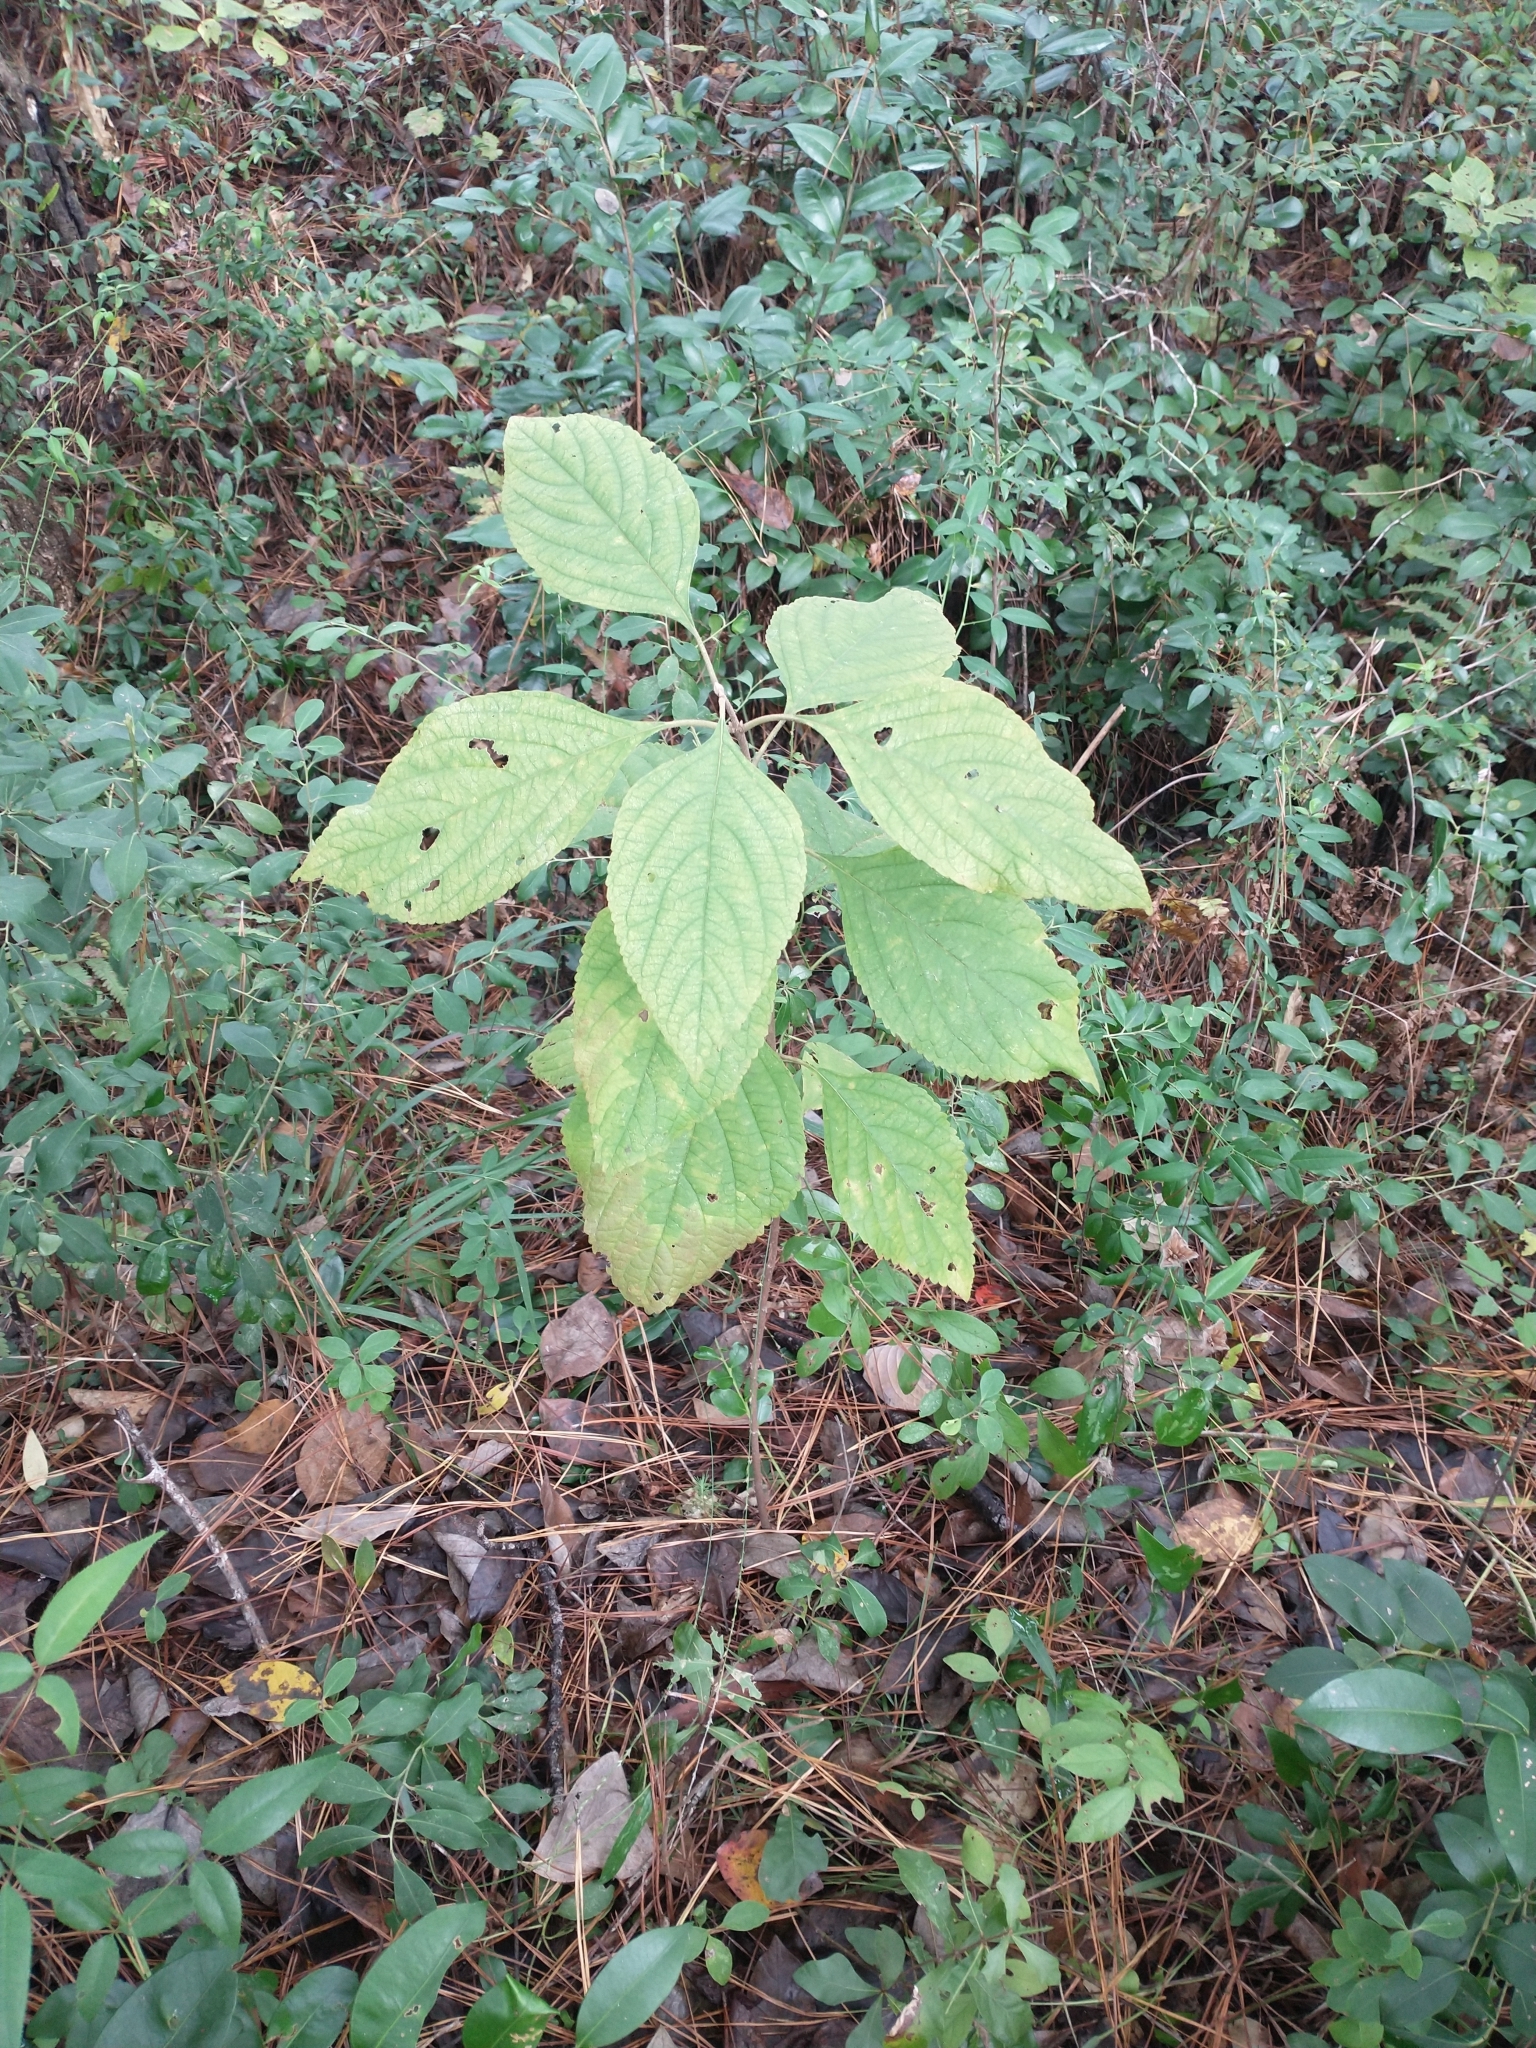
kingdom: Plantae
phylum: Tracheophyta
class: Magnoliopsida
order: Lamiales
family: Lamiaceae
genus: Callicarpa
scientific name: Callicarpa americana
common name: American beautyberry
